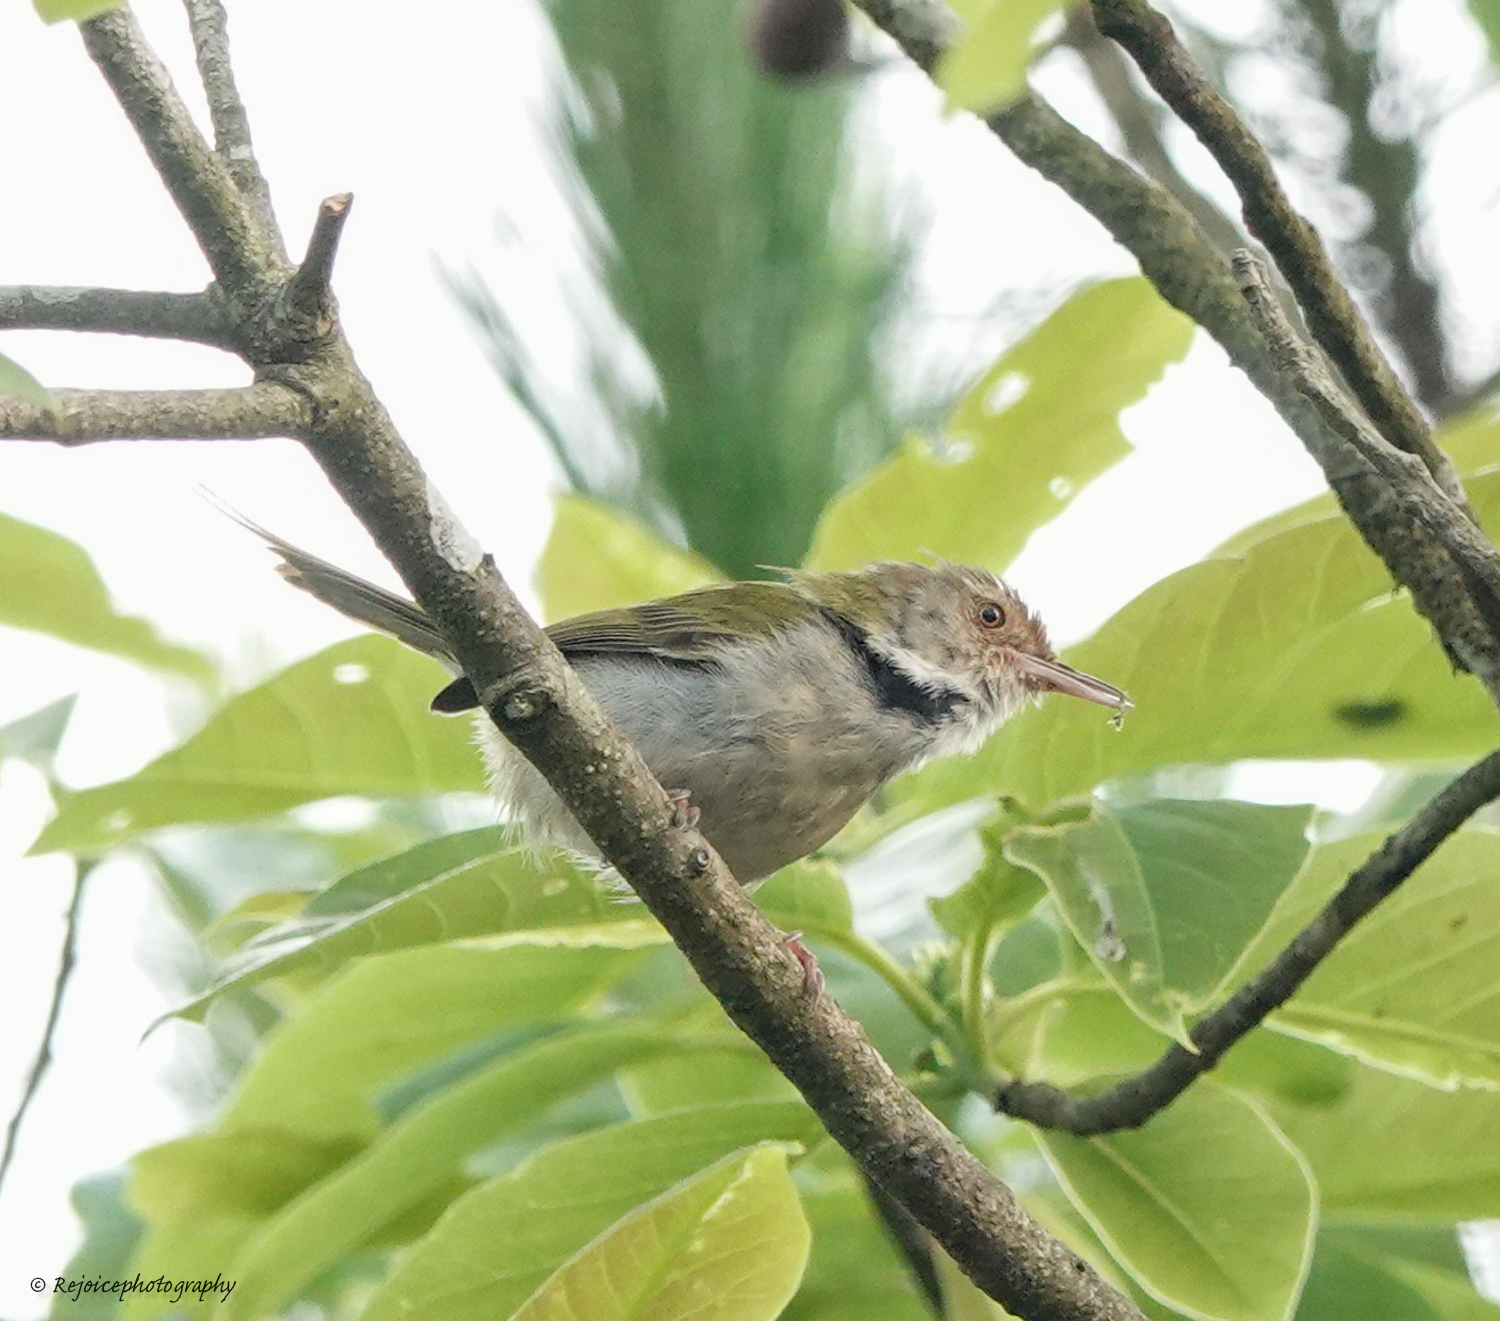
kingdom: Animalia
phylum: Chordata
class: Aves
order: Passeriformes
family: Cisticolidae
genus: Orthotomus
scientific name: Orthotomus sutorius
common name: Common tailorbird
